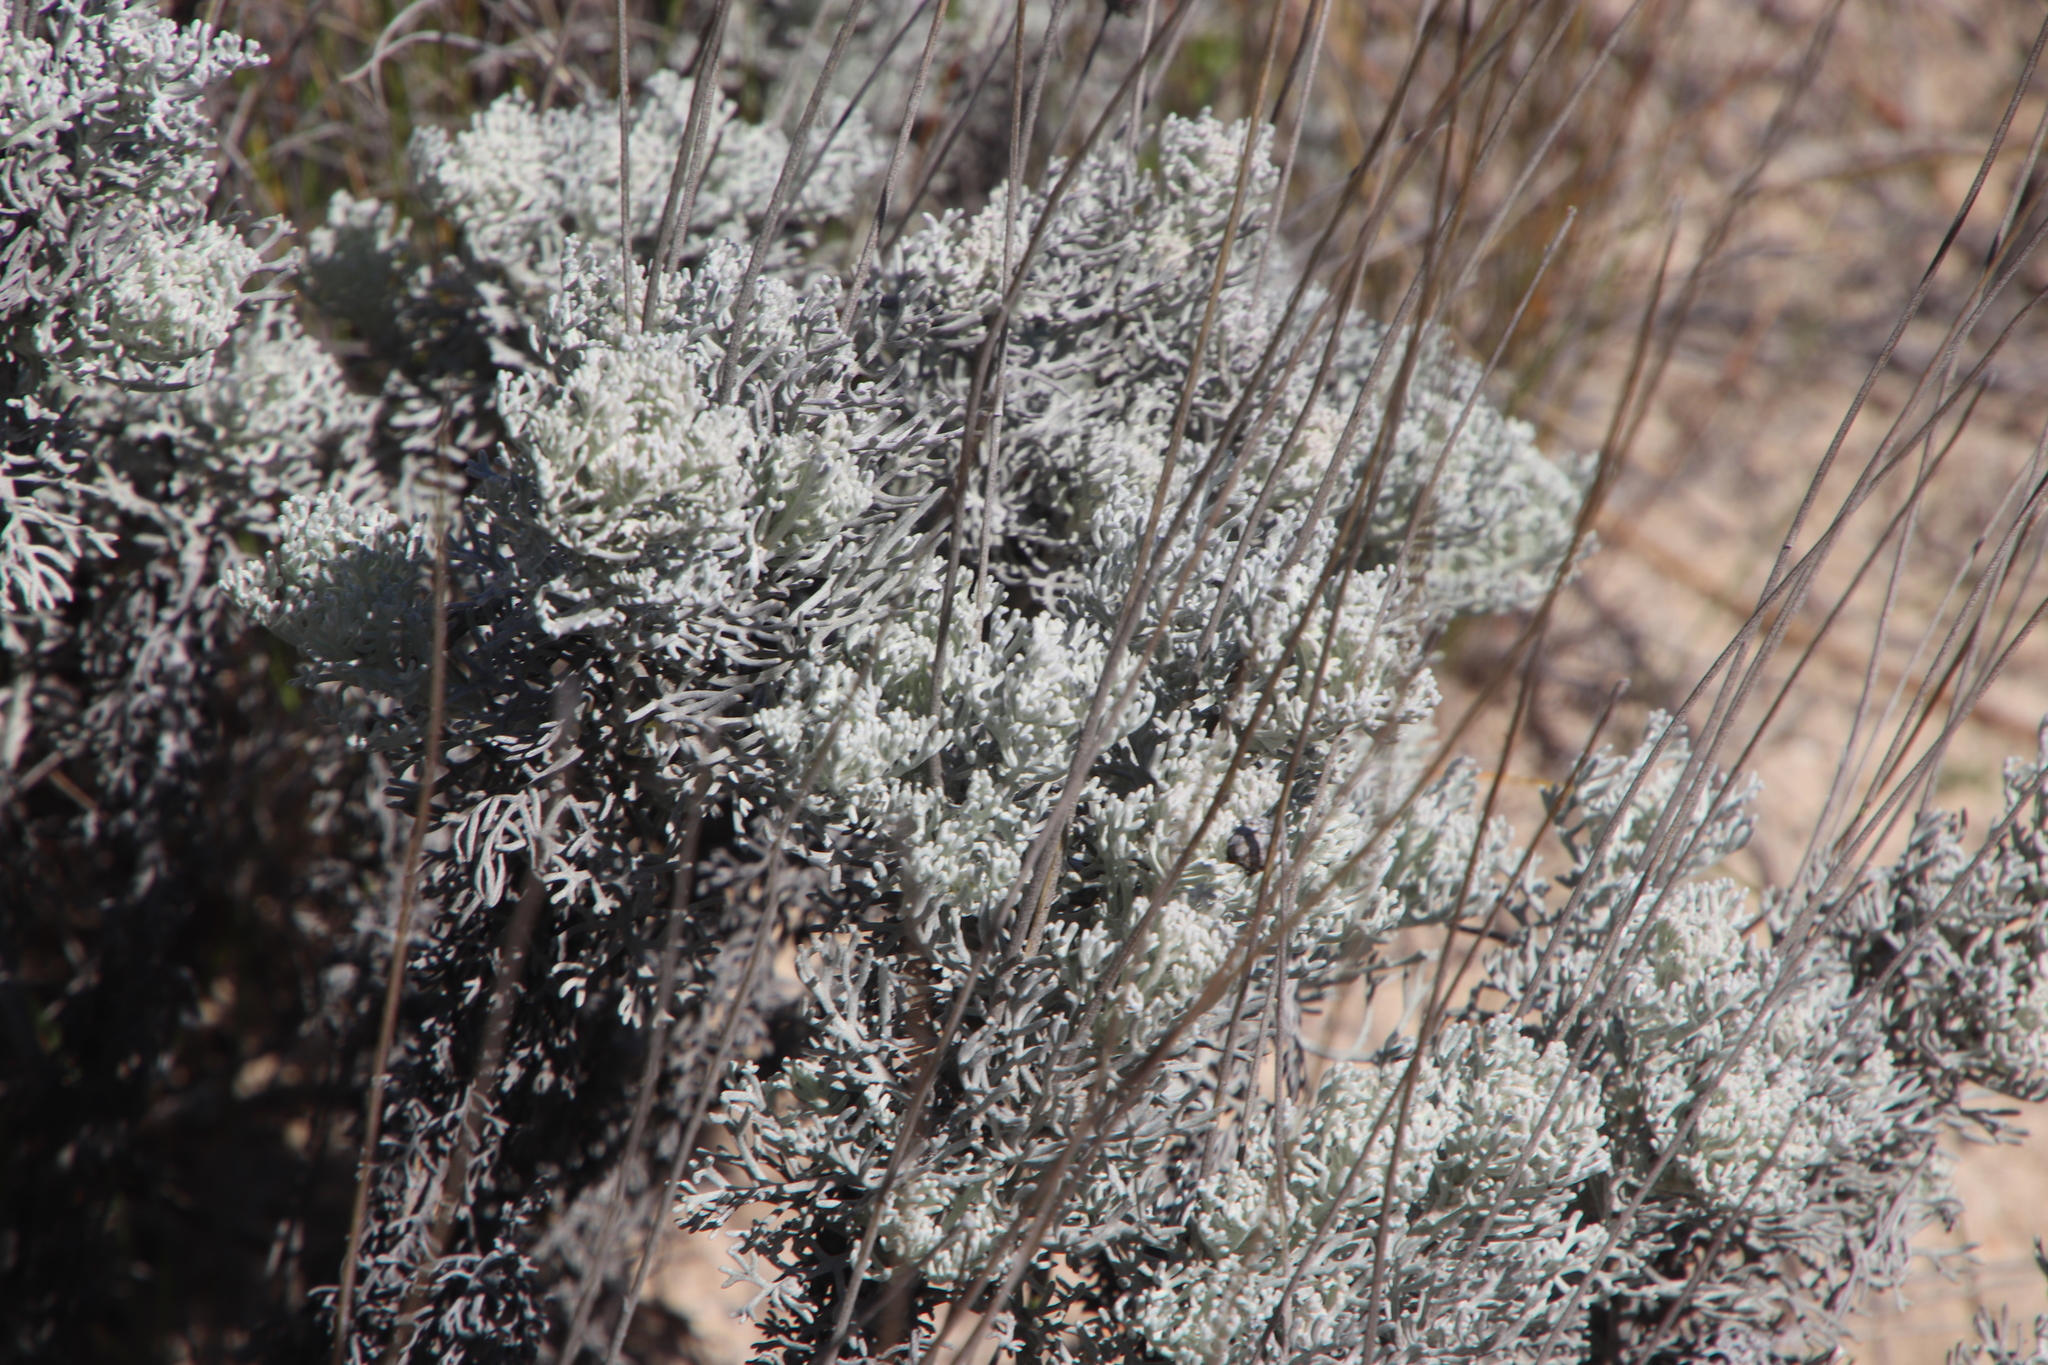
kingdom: Plantae
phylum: Tracheophyta
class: Magnoliopsida
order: Asterales
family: Asteraceae
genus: Ursinia
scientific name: Ursinia sericea
